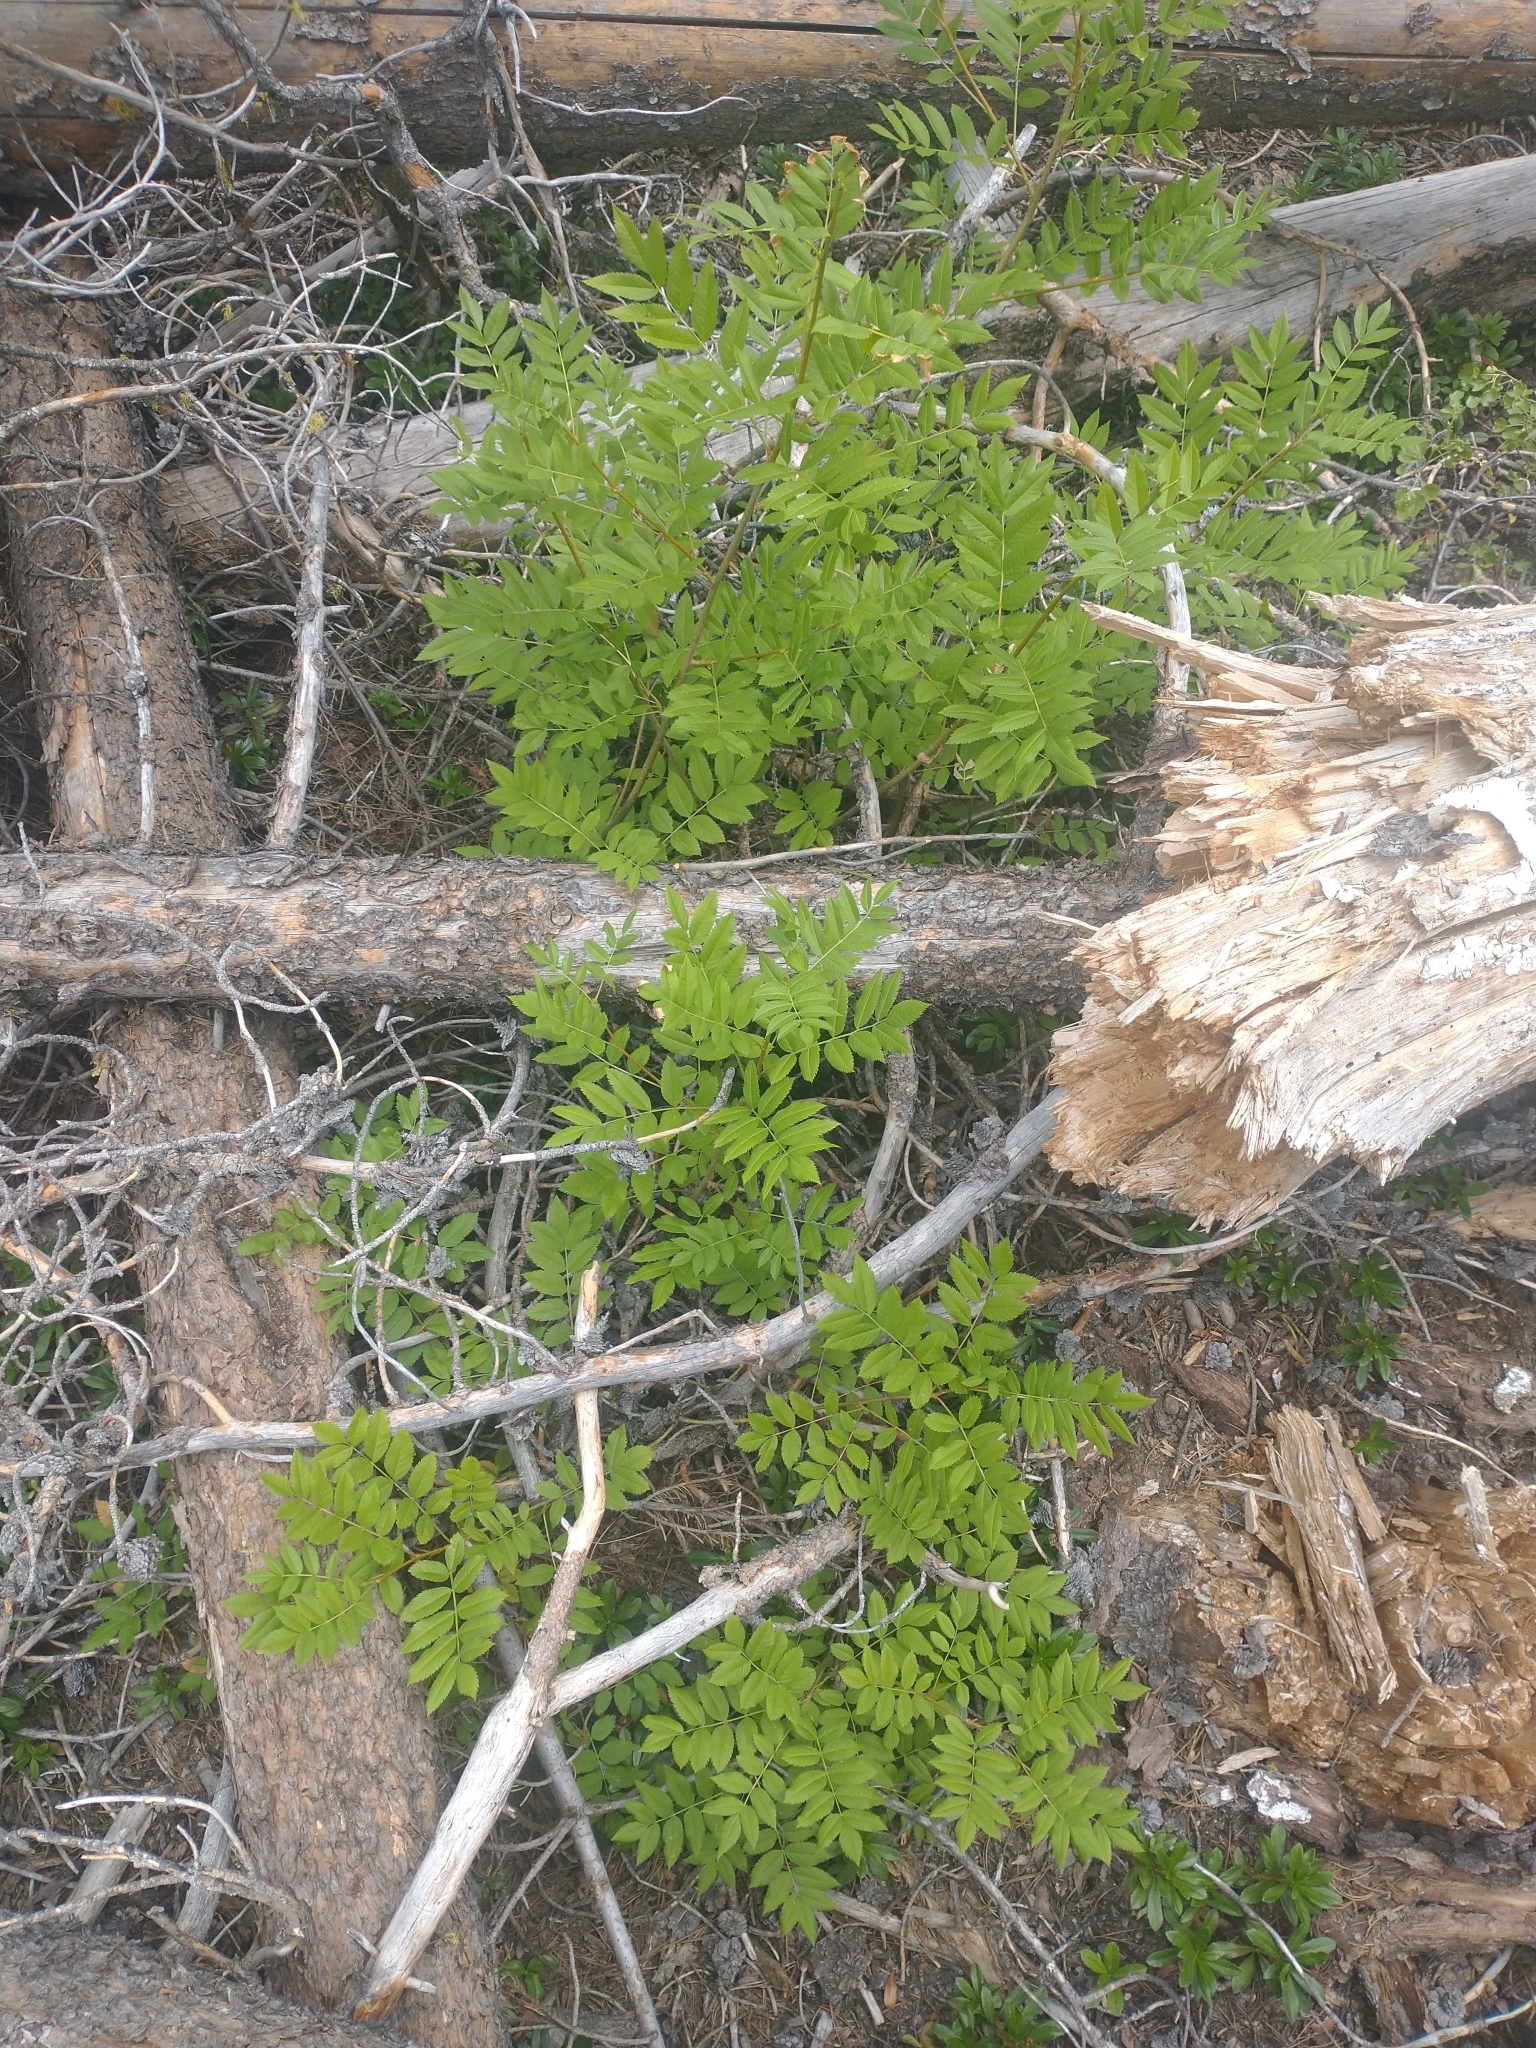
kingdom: Plantae
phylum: Tracheophyta
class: Magnoliopsida
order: Rosales
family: Rosaceae
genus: Sorbus
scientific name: Sorbus scopulina
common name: Greene's mountain-ash
